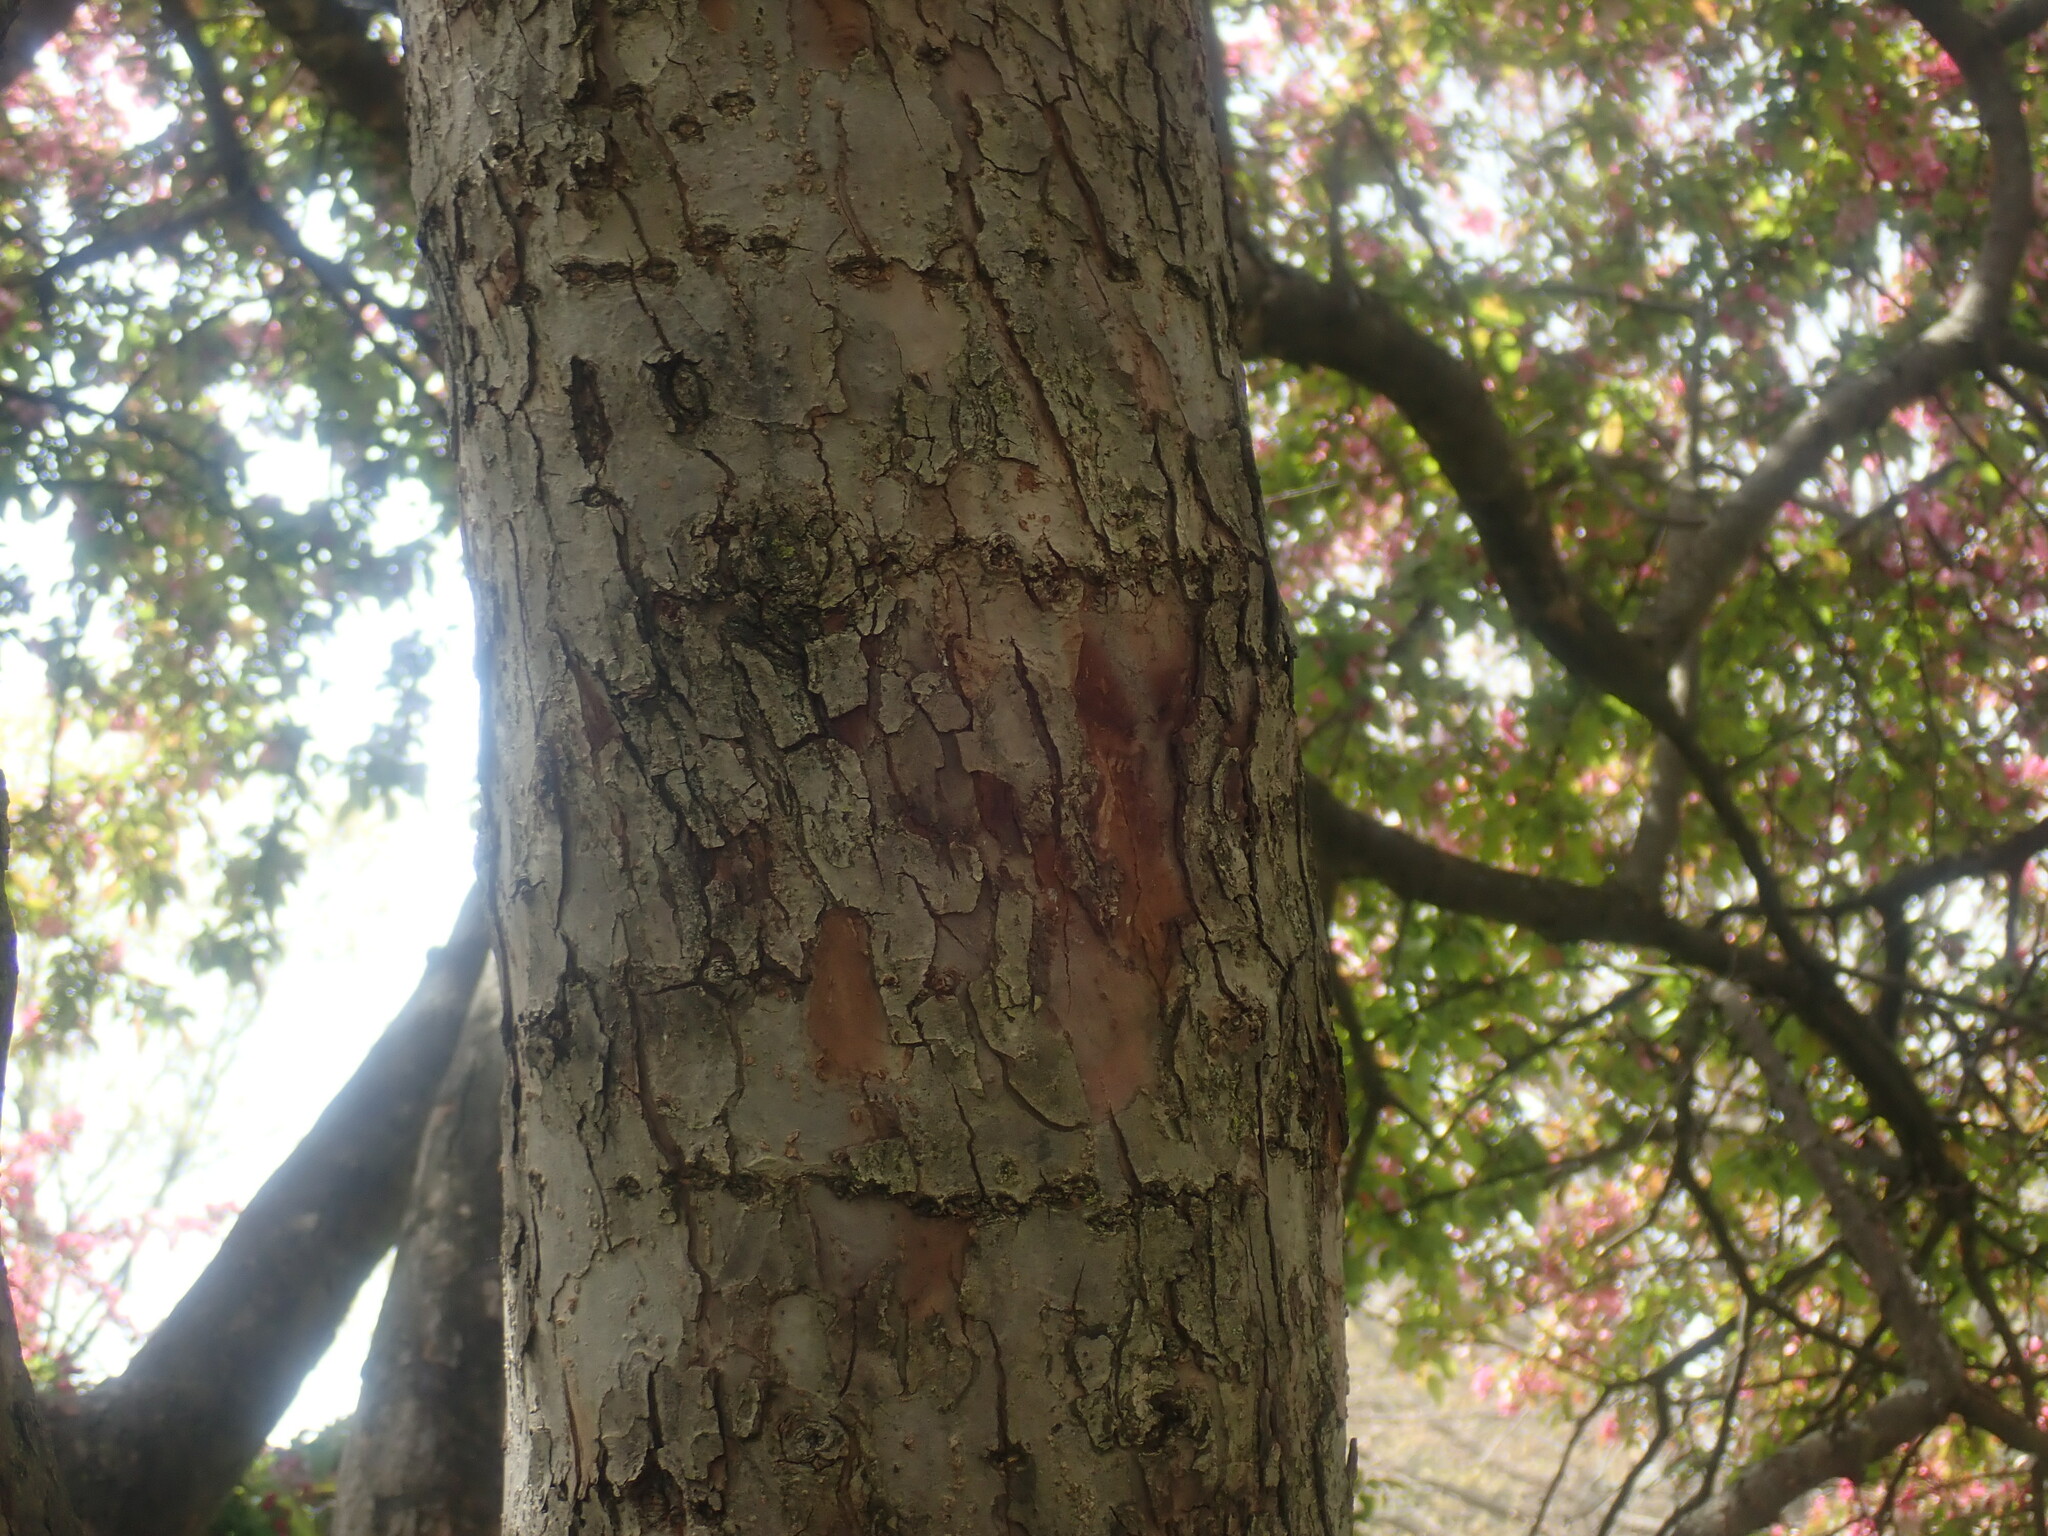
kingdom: Animalia
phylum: Chordata
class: Aves
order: Piciformes
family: Picidae
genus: Sphyrapicus
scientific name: Sphyrapicus varius
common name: Yellow-bellied sapsucker
